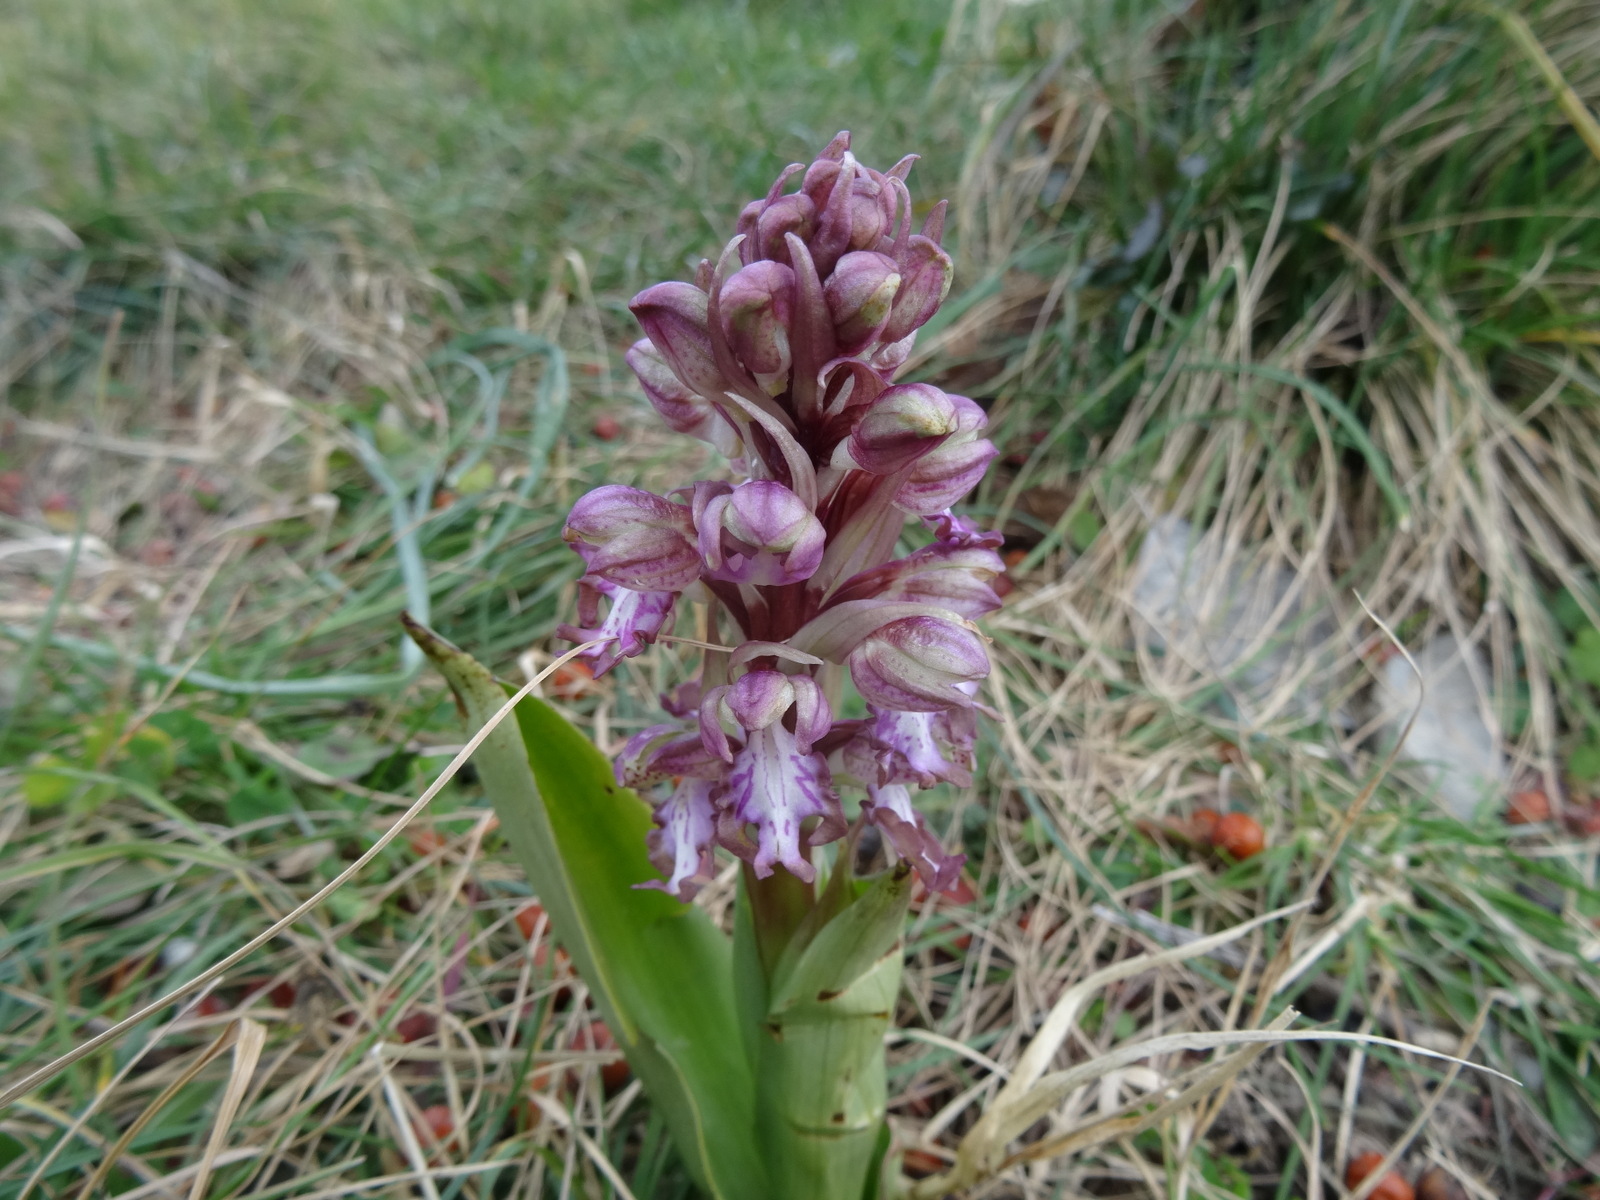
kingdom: Plantae
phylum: Tracheophyta
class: Liliopsida
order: Asparagales
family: Orchidaceae
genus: Himantoglossum
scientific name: Himantoglossum robertianum
